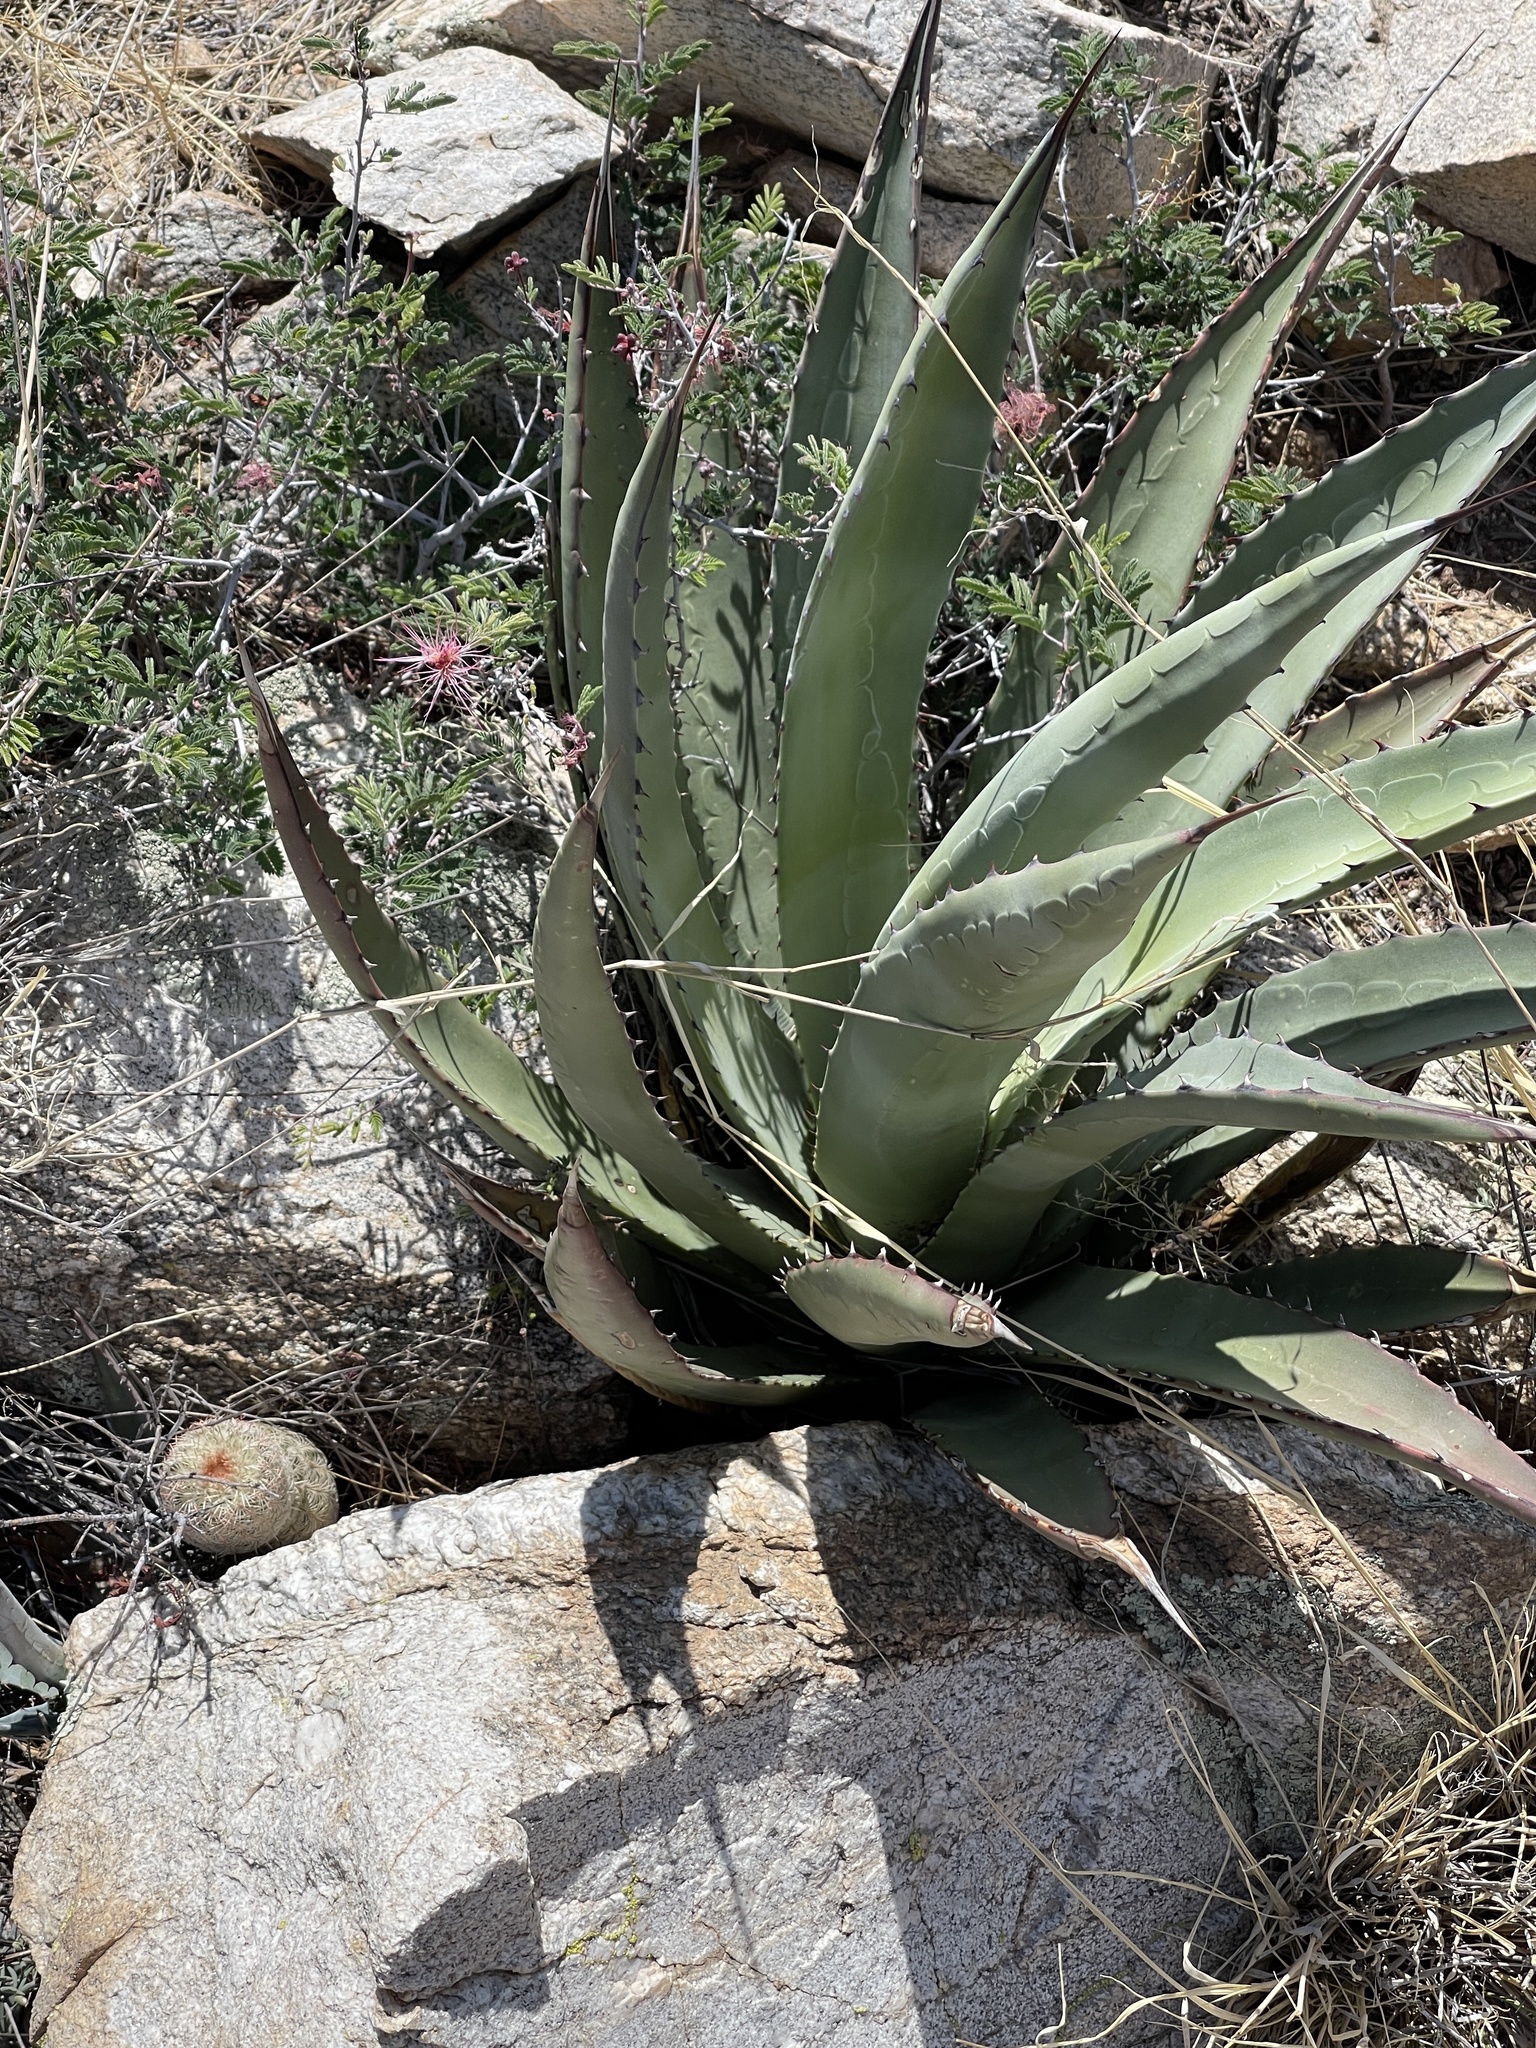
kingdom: Plantae
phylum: Tracheophyta
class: Liliopsida
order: Asparagales
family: Asparagaceae
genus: Agave
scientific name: Agave palmeri
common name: Palmer agave
